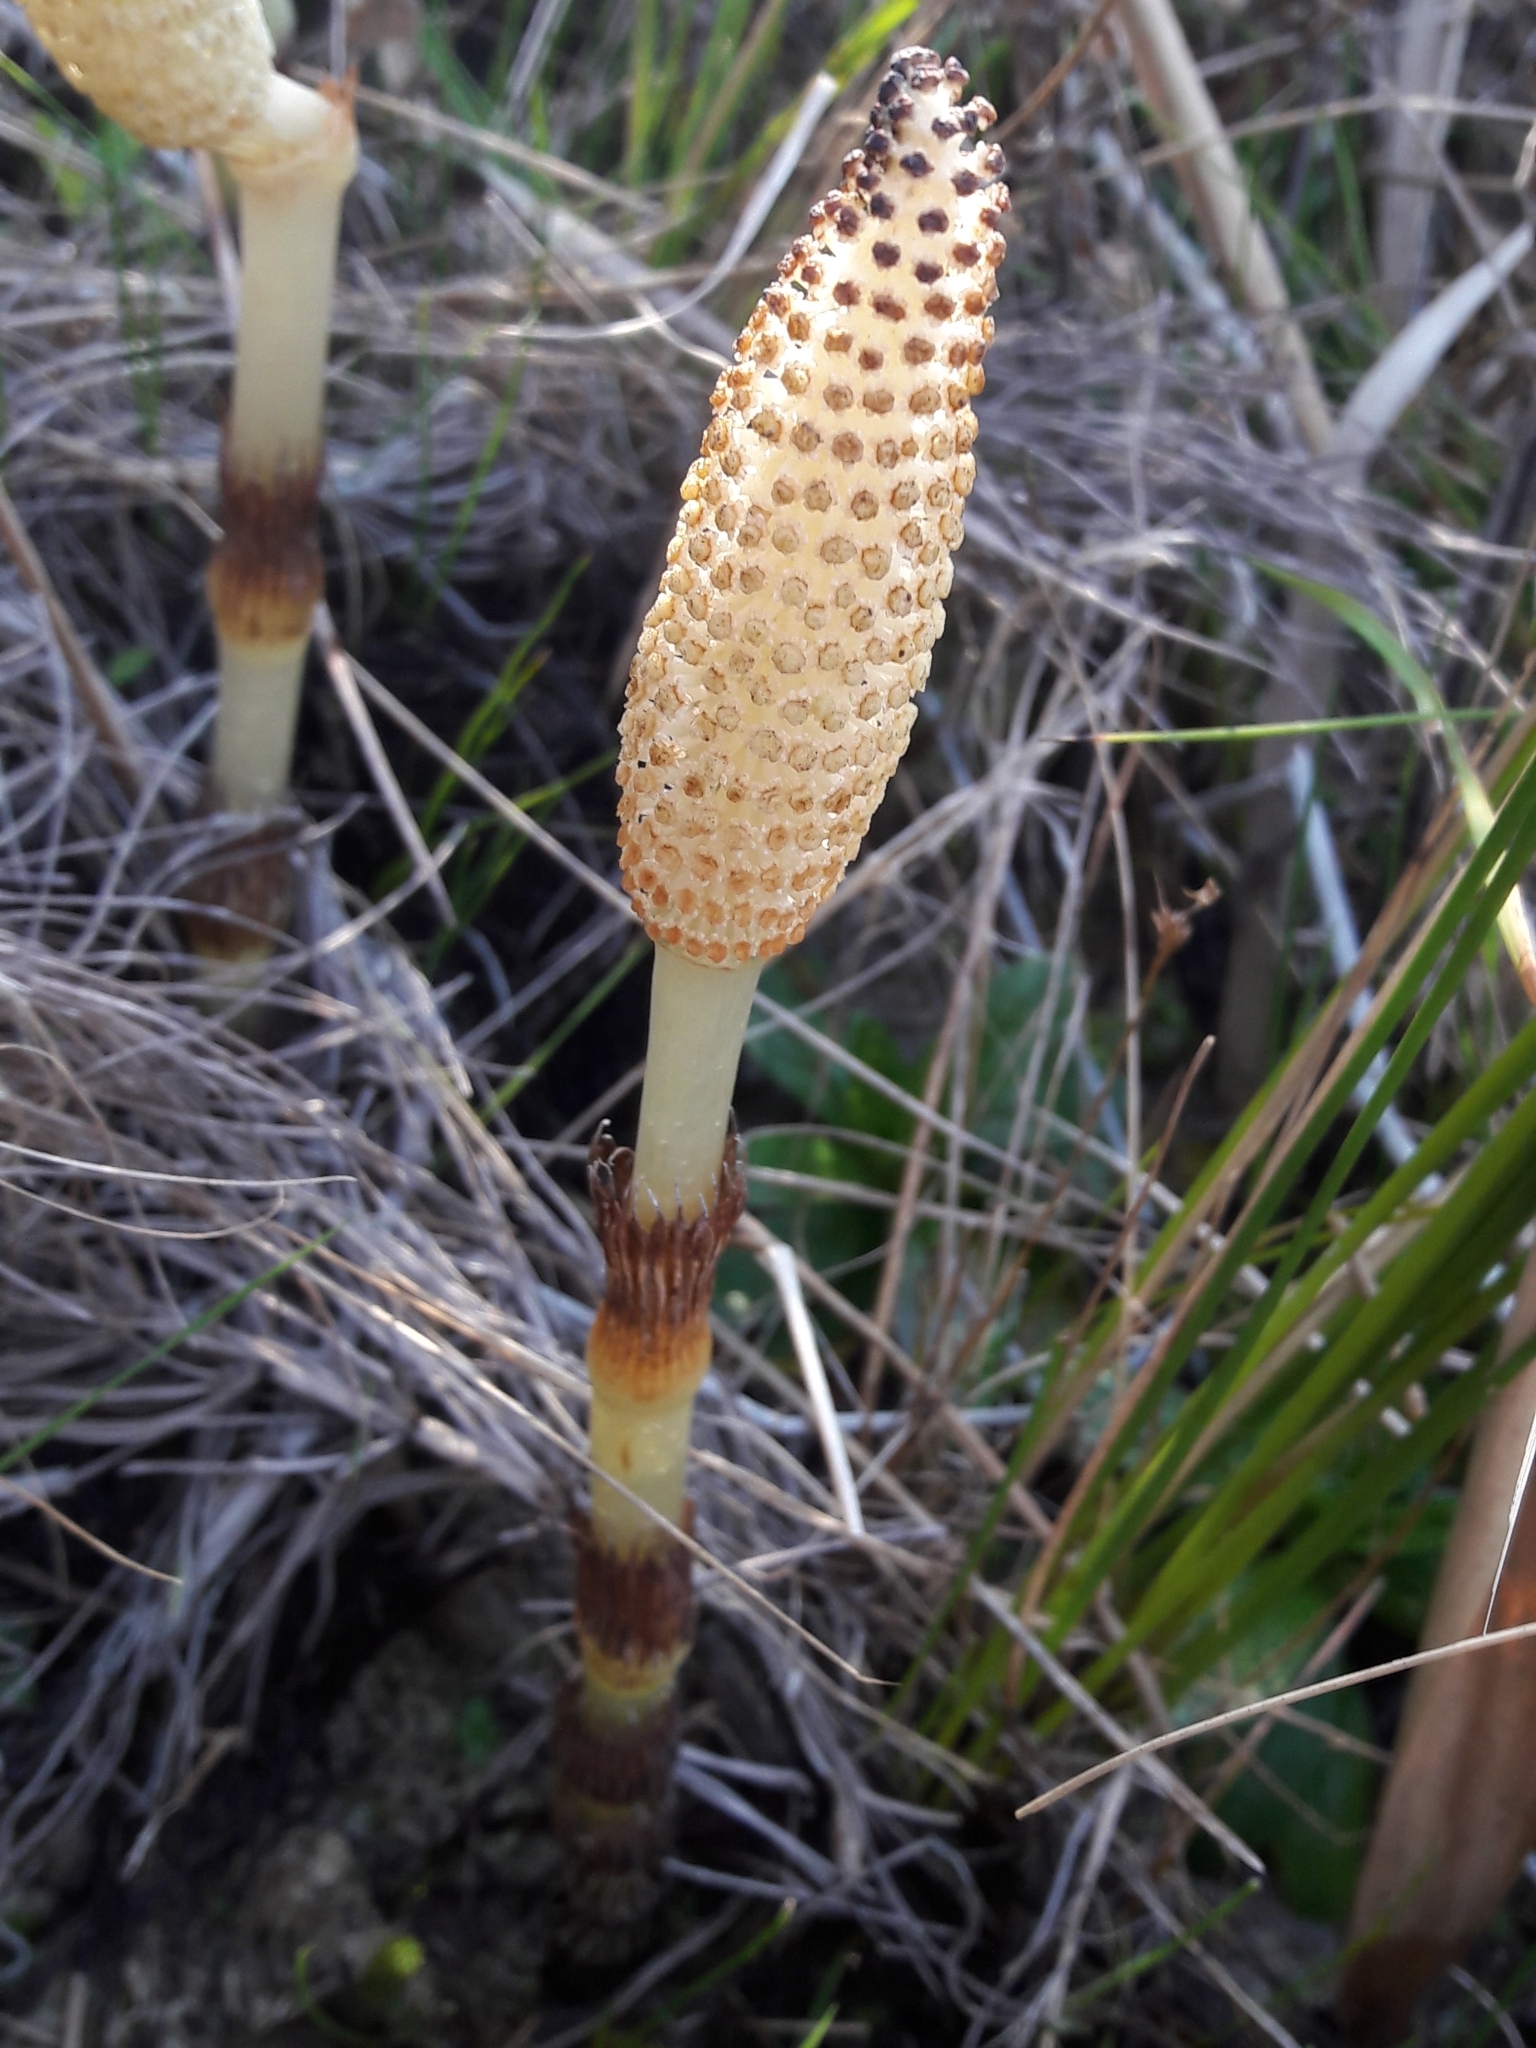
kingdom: Plantae
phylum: Tracheophyta
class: Polypodiopsida
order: Equisetales
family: Equisetaceae
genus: Equisetum
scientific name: Equisetum telmateia
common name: Great horsetail
